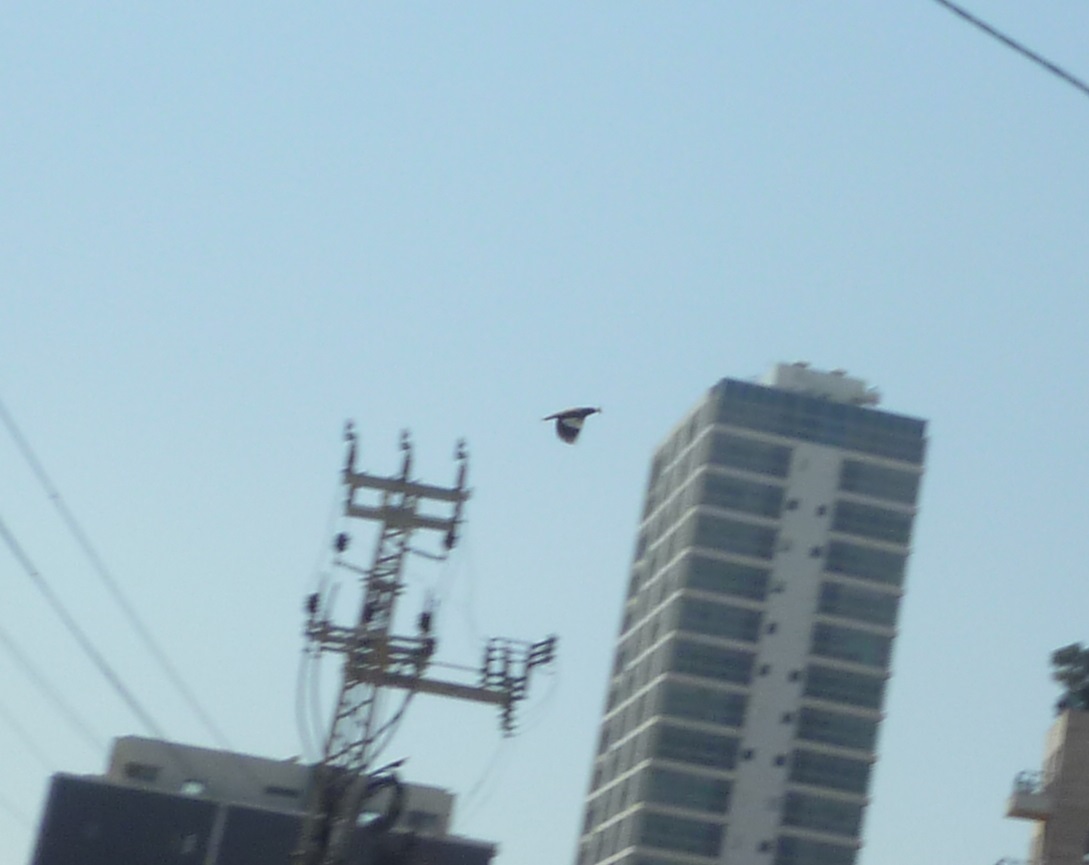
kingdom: Animalia
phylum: Chordata
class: Aves
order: Passeriformes
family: Sturnidae
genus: Acridotheres
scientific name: Acridotheres tristis
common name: Common myna
